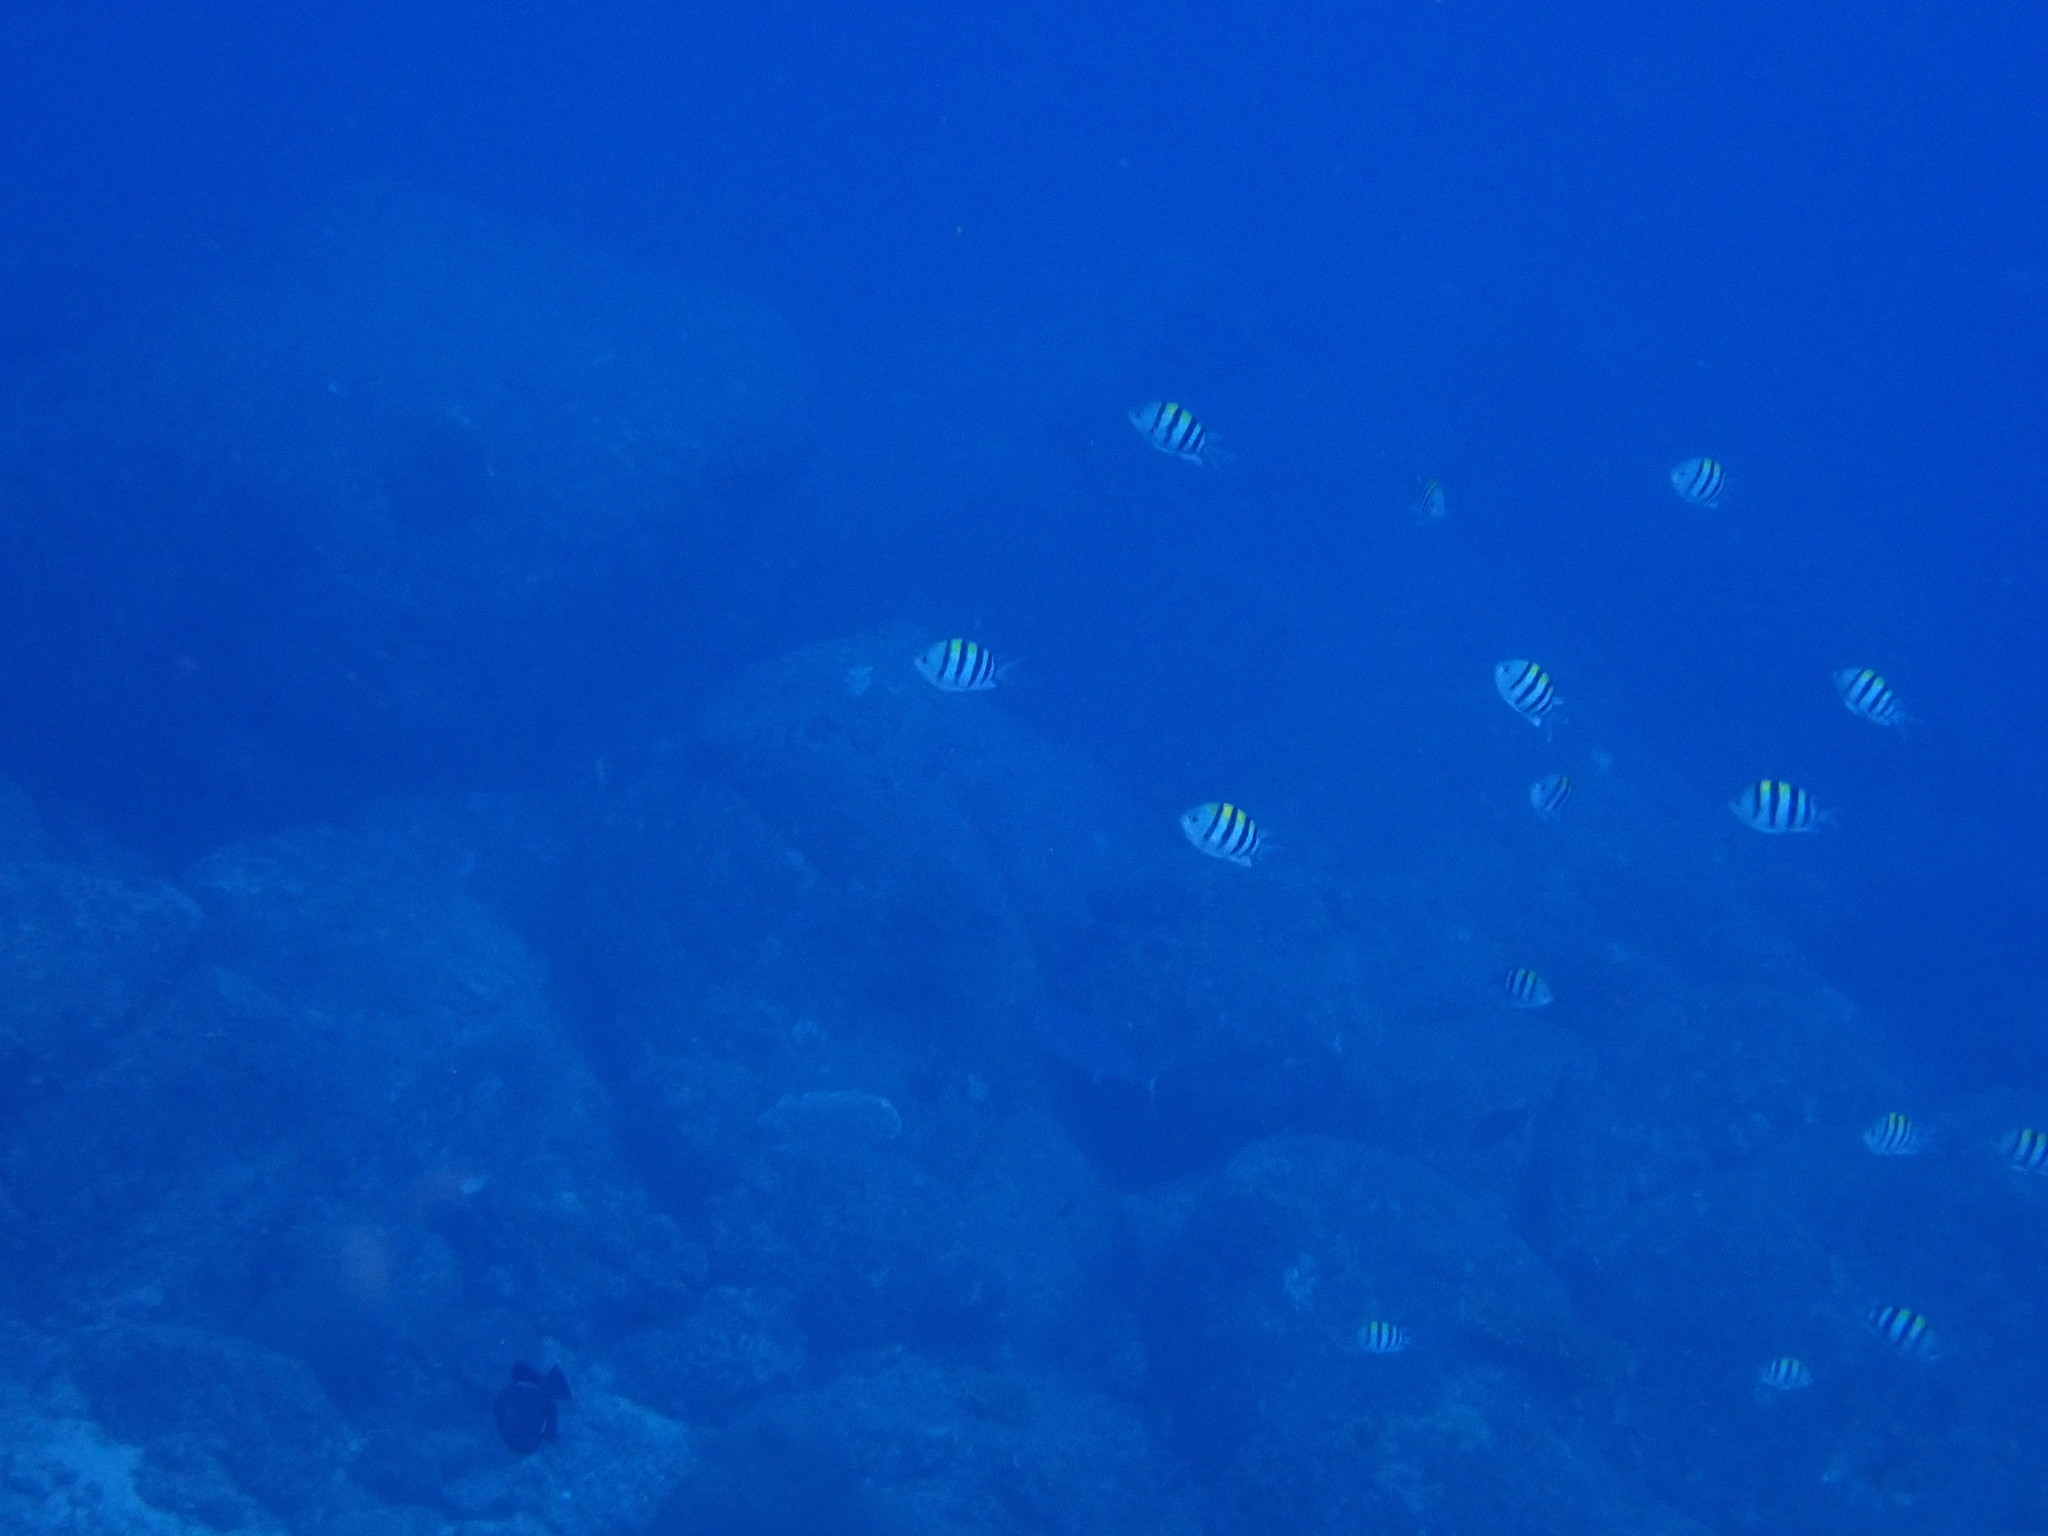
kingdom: Animalia
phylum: Chordata
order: Perciformes
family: Pomacentridae
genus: Abudefduf
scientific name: Abudefduf vaigiensis
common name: Indo-pacific sergeant
